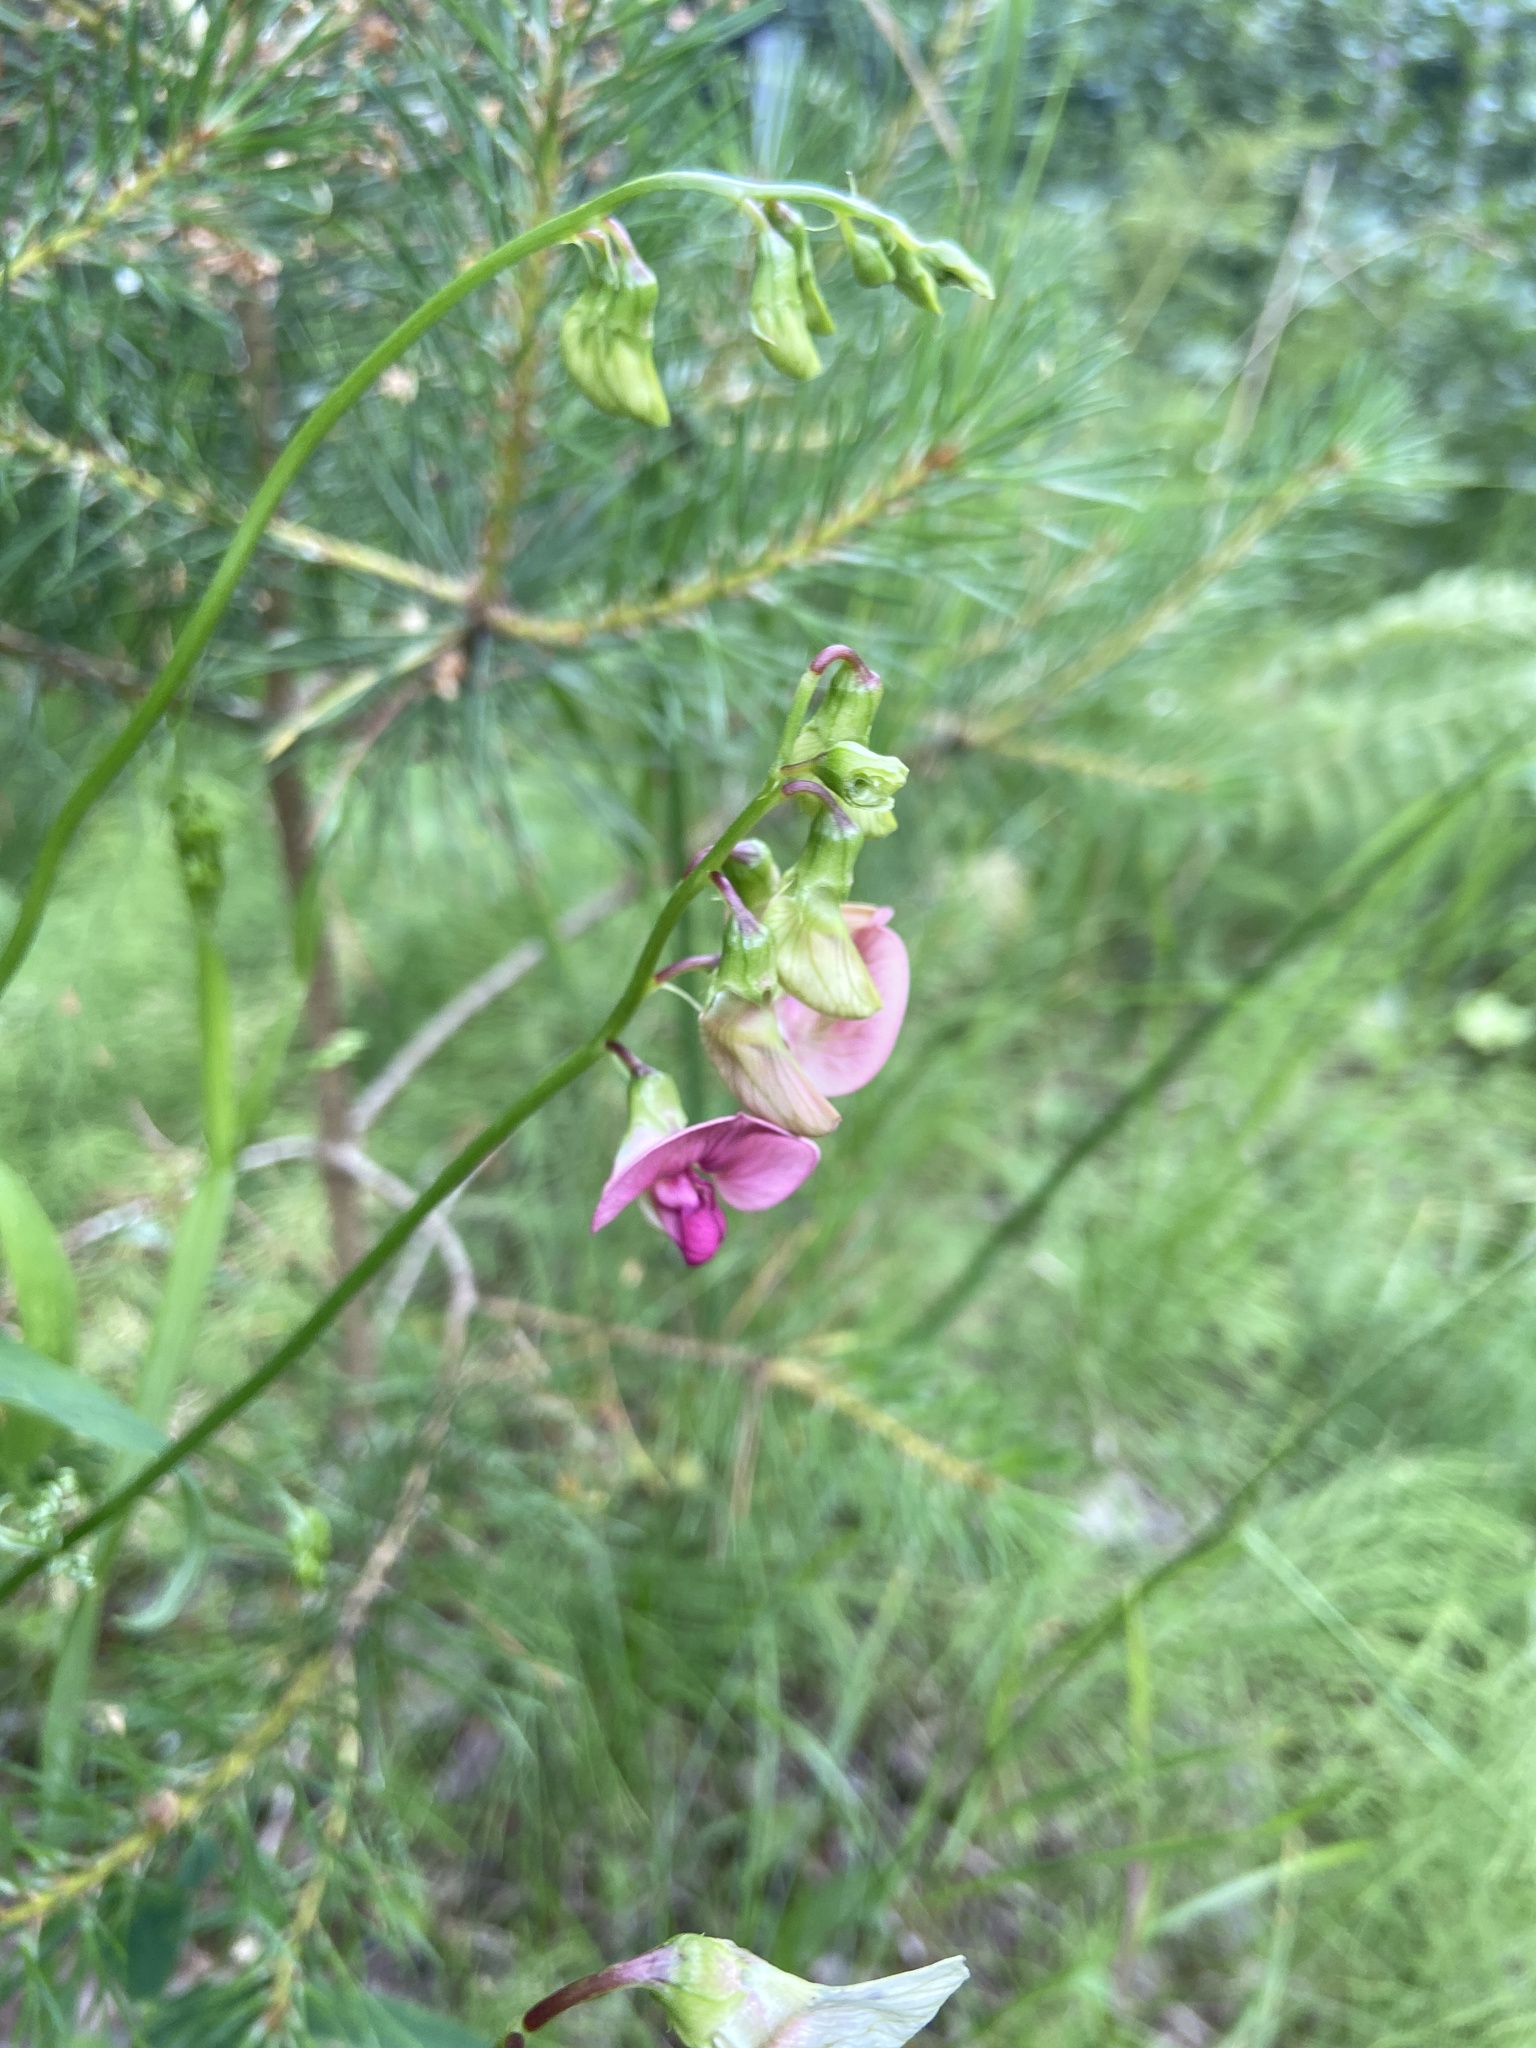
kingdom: Plantae
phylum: Tracheophyta
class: Magnoliopsida
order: Fabales
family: Fabaceae
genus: Lathyrus
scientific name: Lathyrus sylvestris
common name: Flat pea
